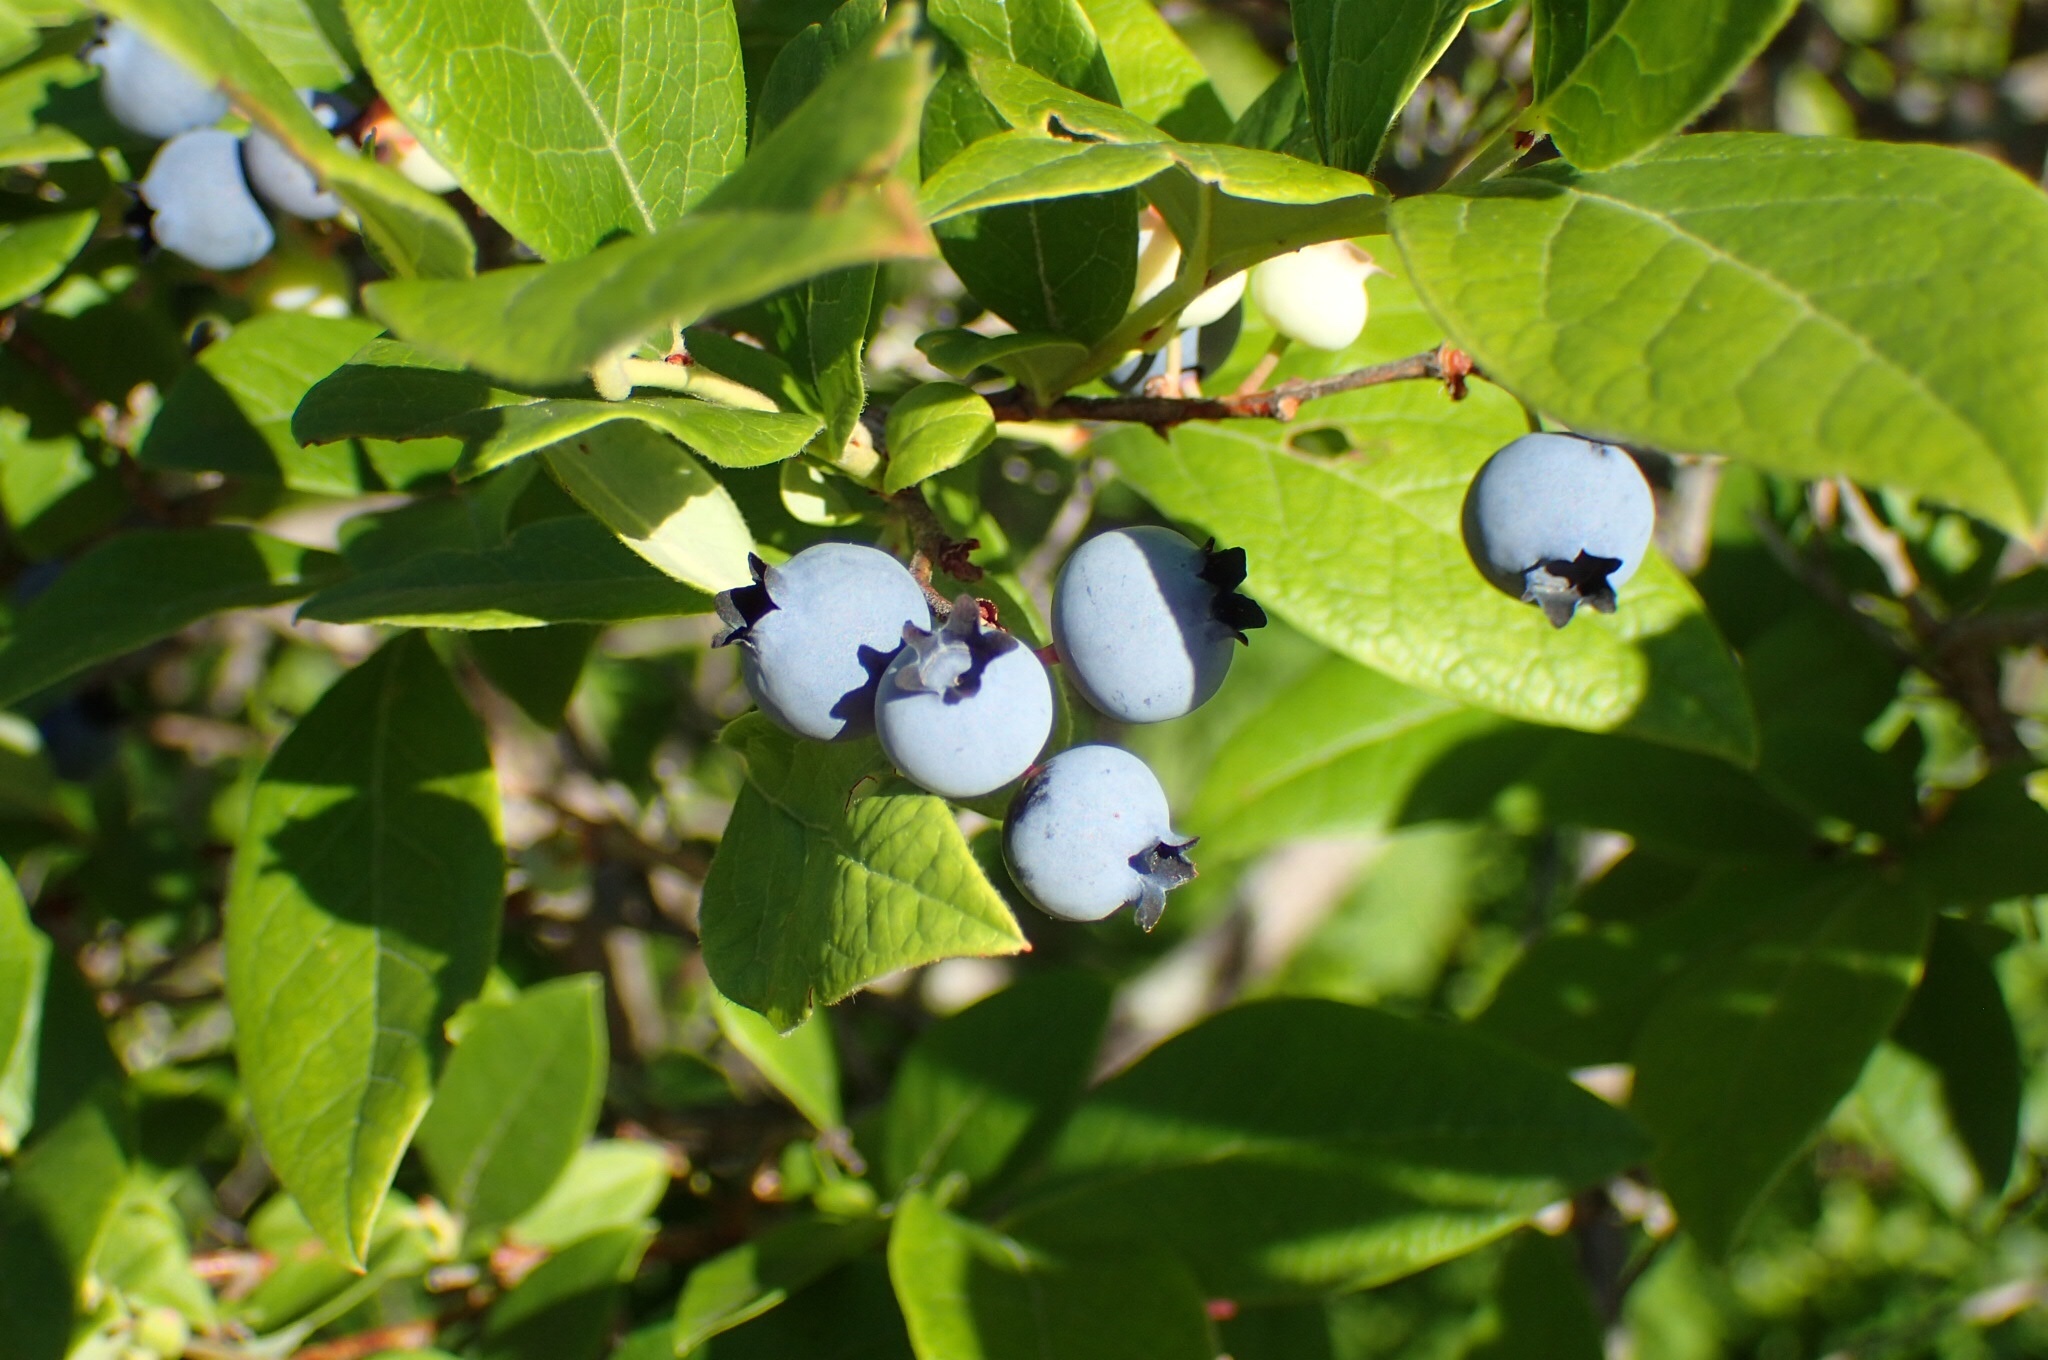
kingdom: Plantae
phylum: Tracheophyta
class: Magnoliopsida
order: Ericales
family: Ericaceae
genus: Vaccinium
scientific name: Vaccinium corymbosum
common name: Blueberry
